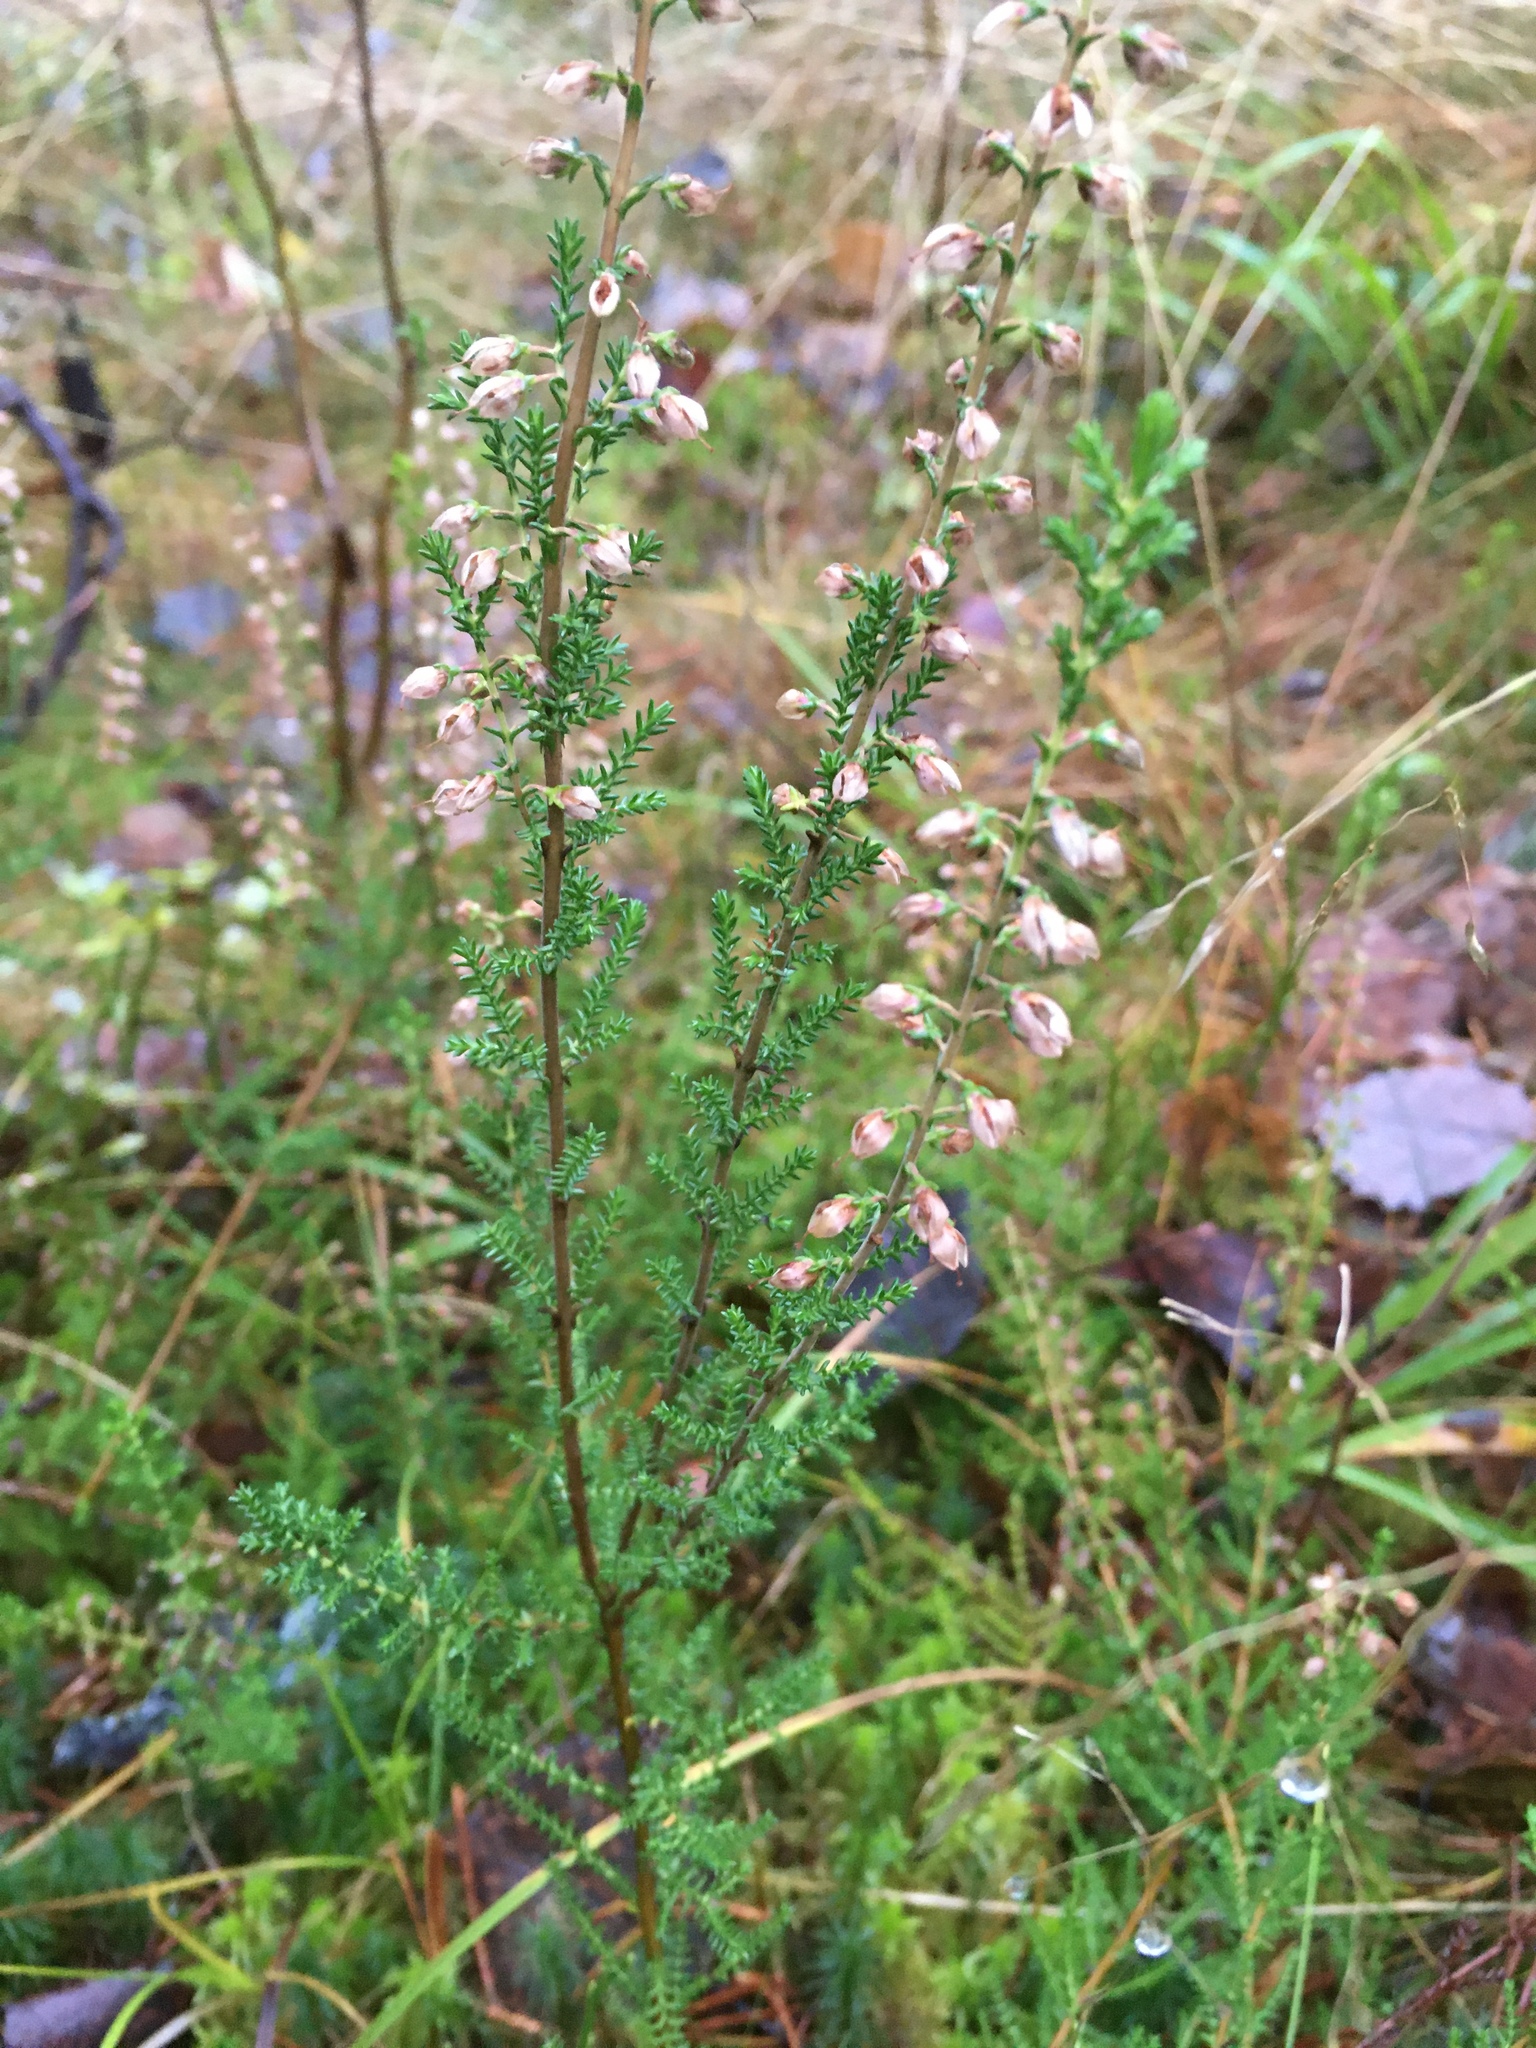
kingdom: Plantae
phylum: Tracheophyta
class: Magnoliopsida
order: Ericales
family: Ericaceae
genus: Calluna
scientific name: Calluna vulgaris
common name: Heather
